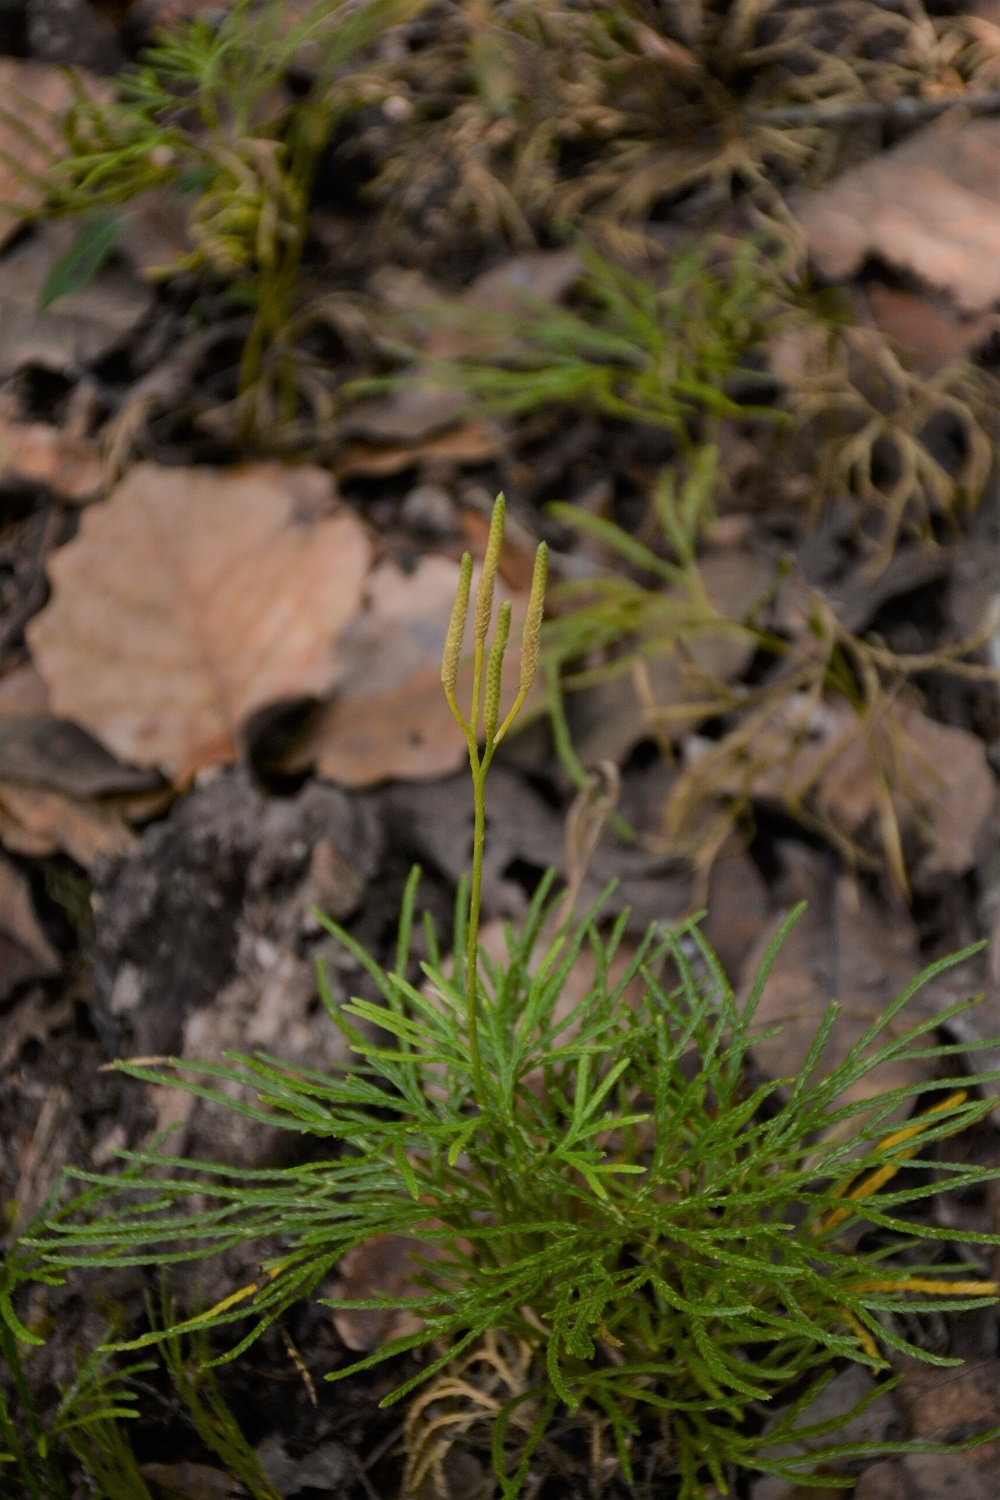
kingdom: Plantae
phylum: Tracheophyta
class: Lycopodiopsida
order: Lycopodiales
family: Lycopodiaceae
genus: Diphasiastrum
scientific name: Diphasiastrum thyoides
